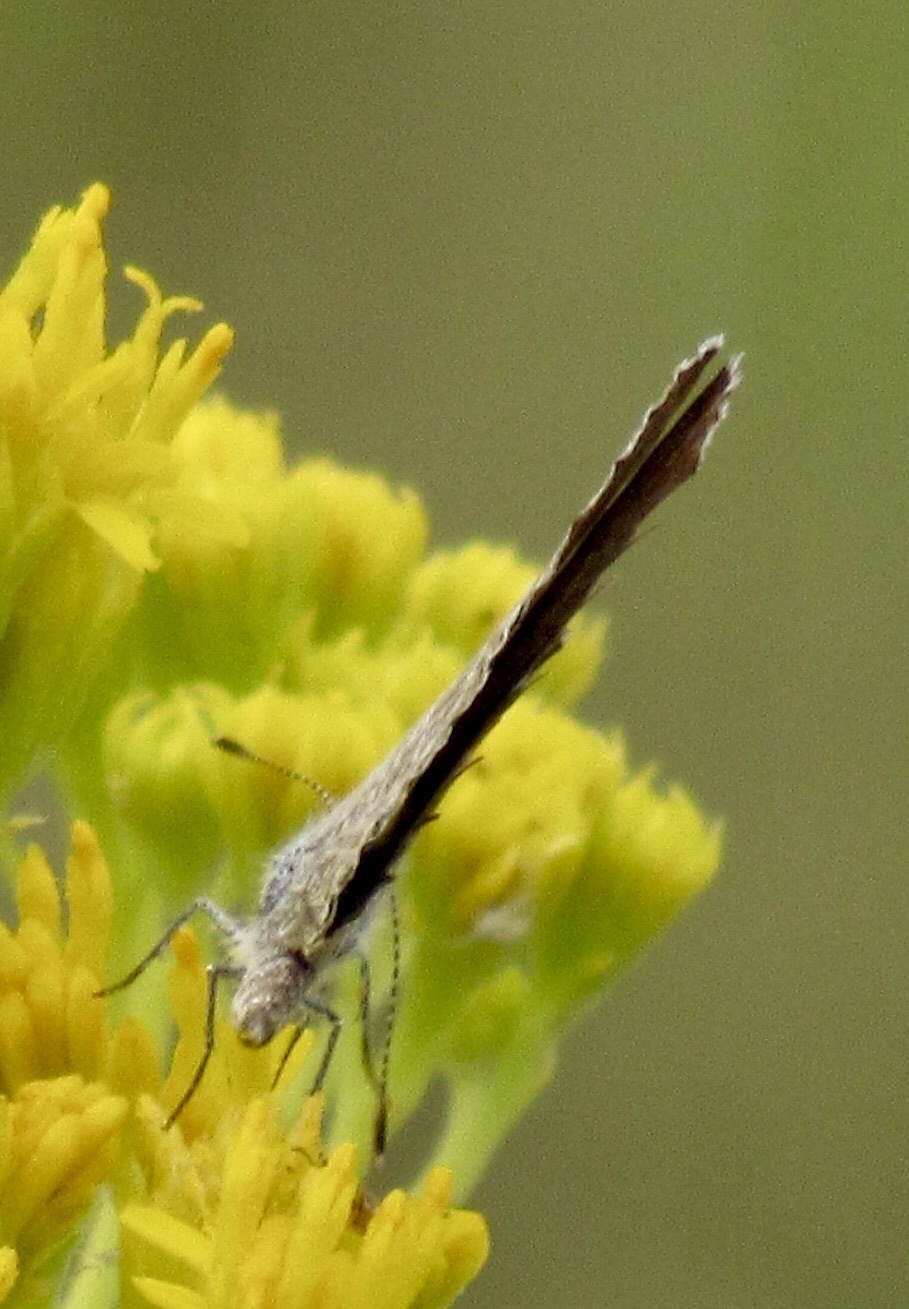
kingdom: Animalia
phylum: Arthropoda
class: Insecta
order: Lepidoptera
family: Lycaenidae
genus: Echinargus
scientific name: Echinargus isola
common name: Reakirt's blue
